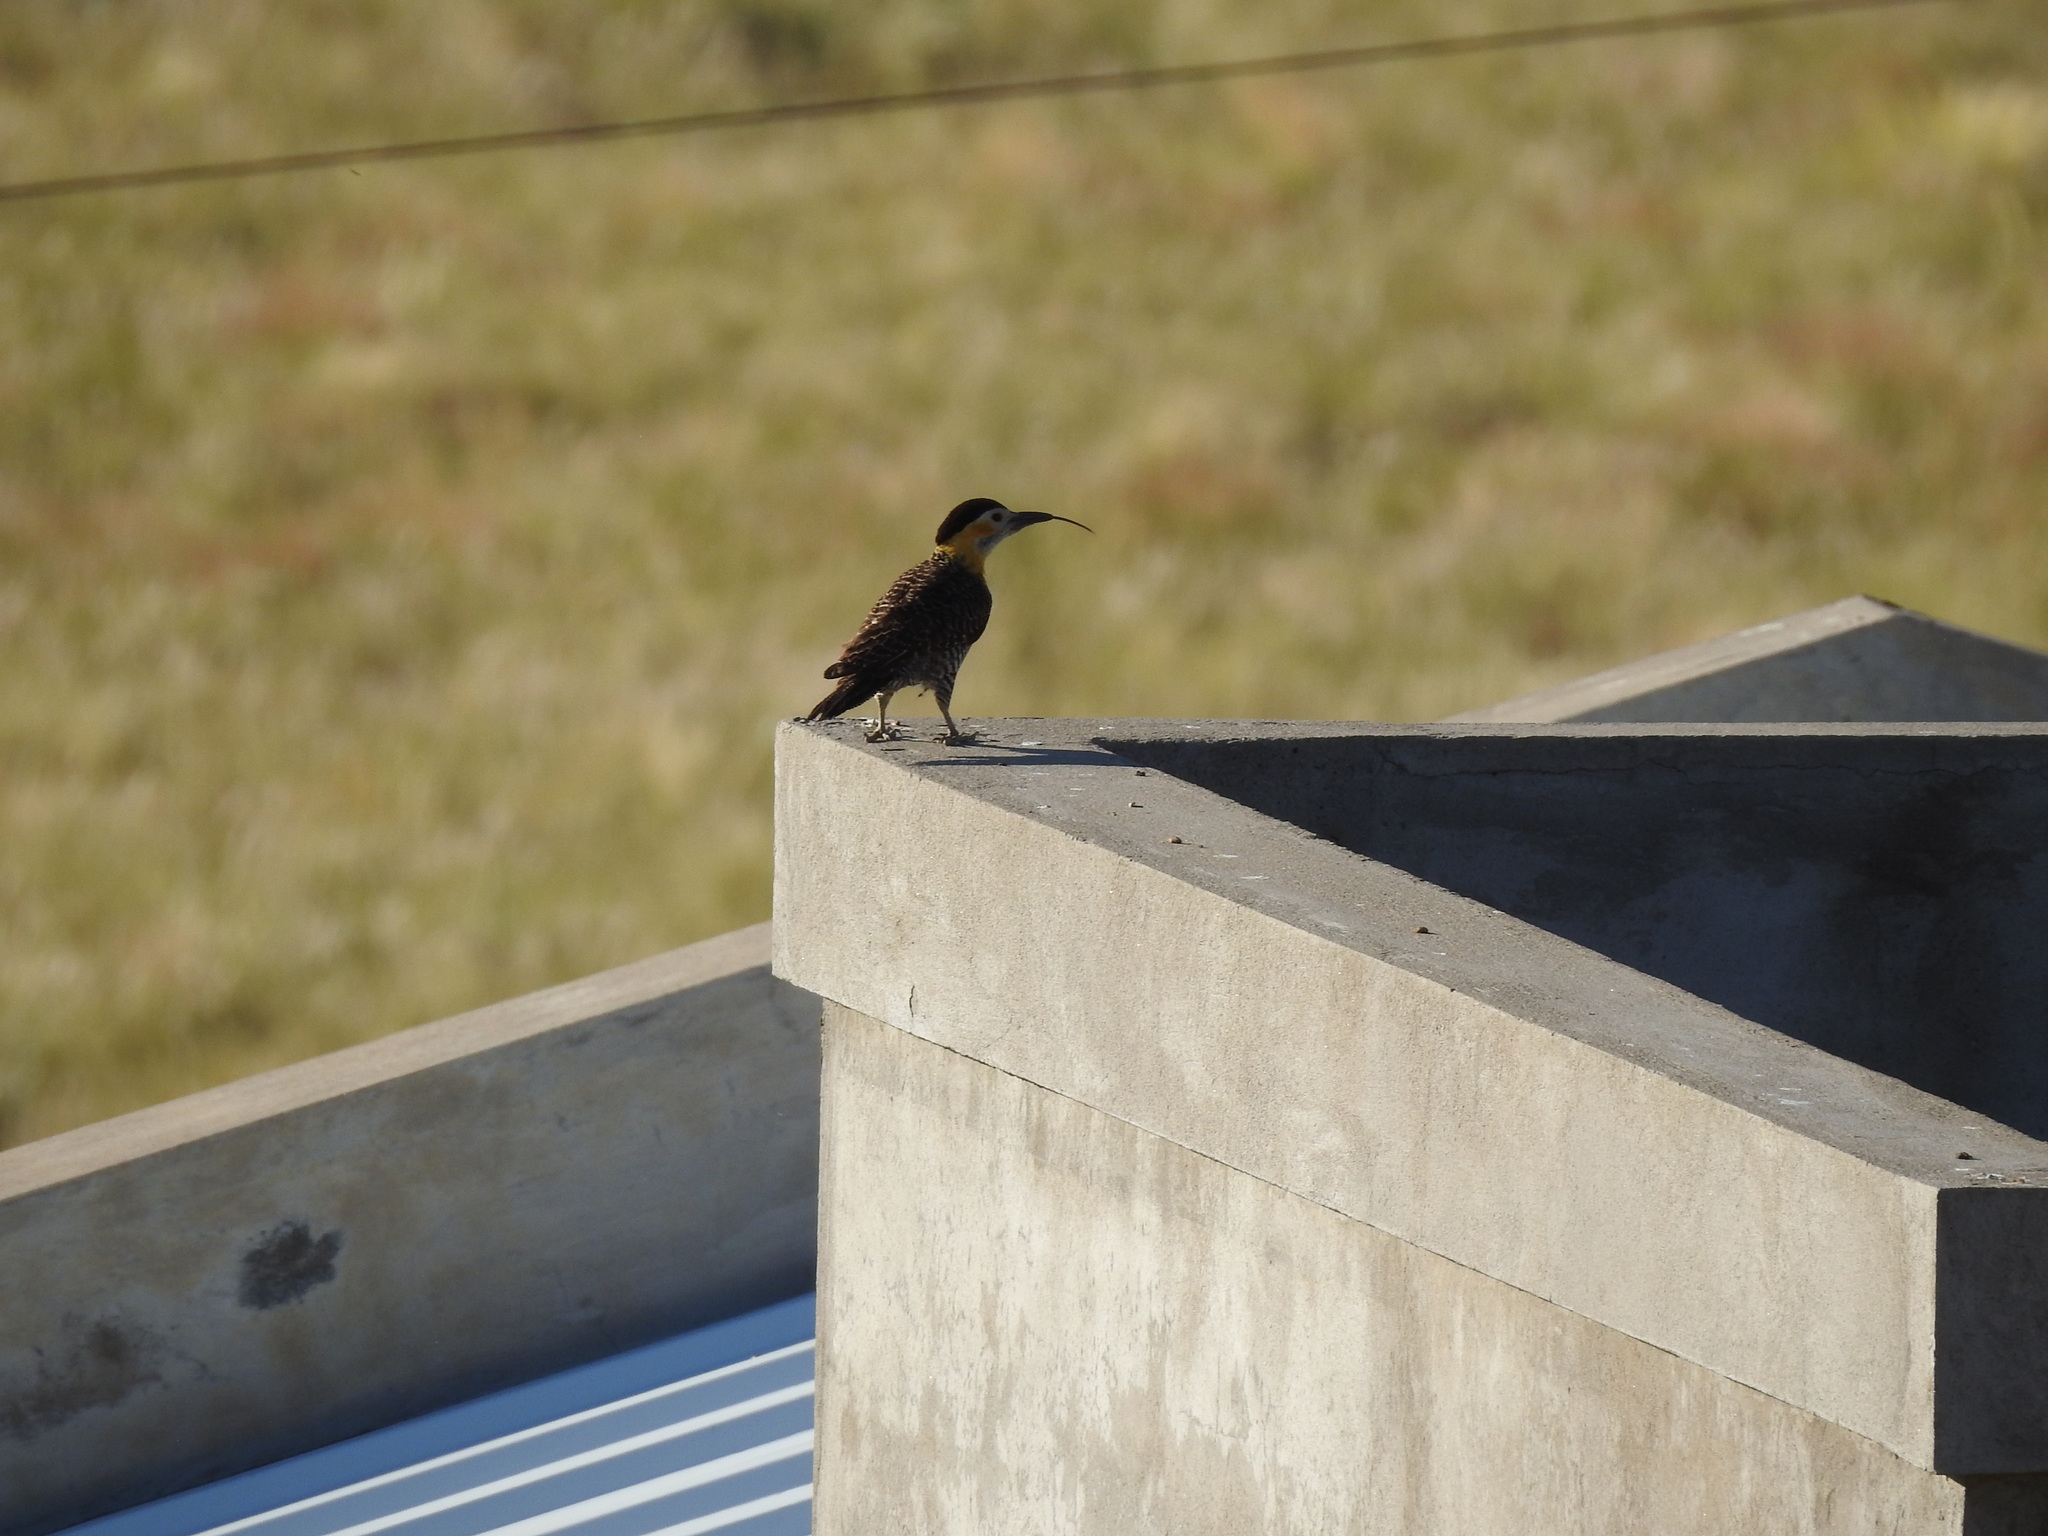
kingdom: Animalia
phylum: Chordata
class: Aves
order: Piciformes
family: Picidae
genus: Colaptes
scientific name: Colaptes campestris
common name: Campo flicker
